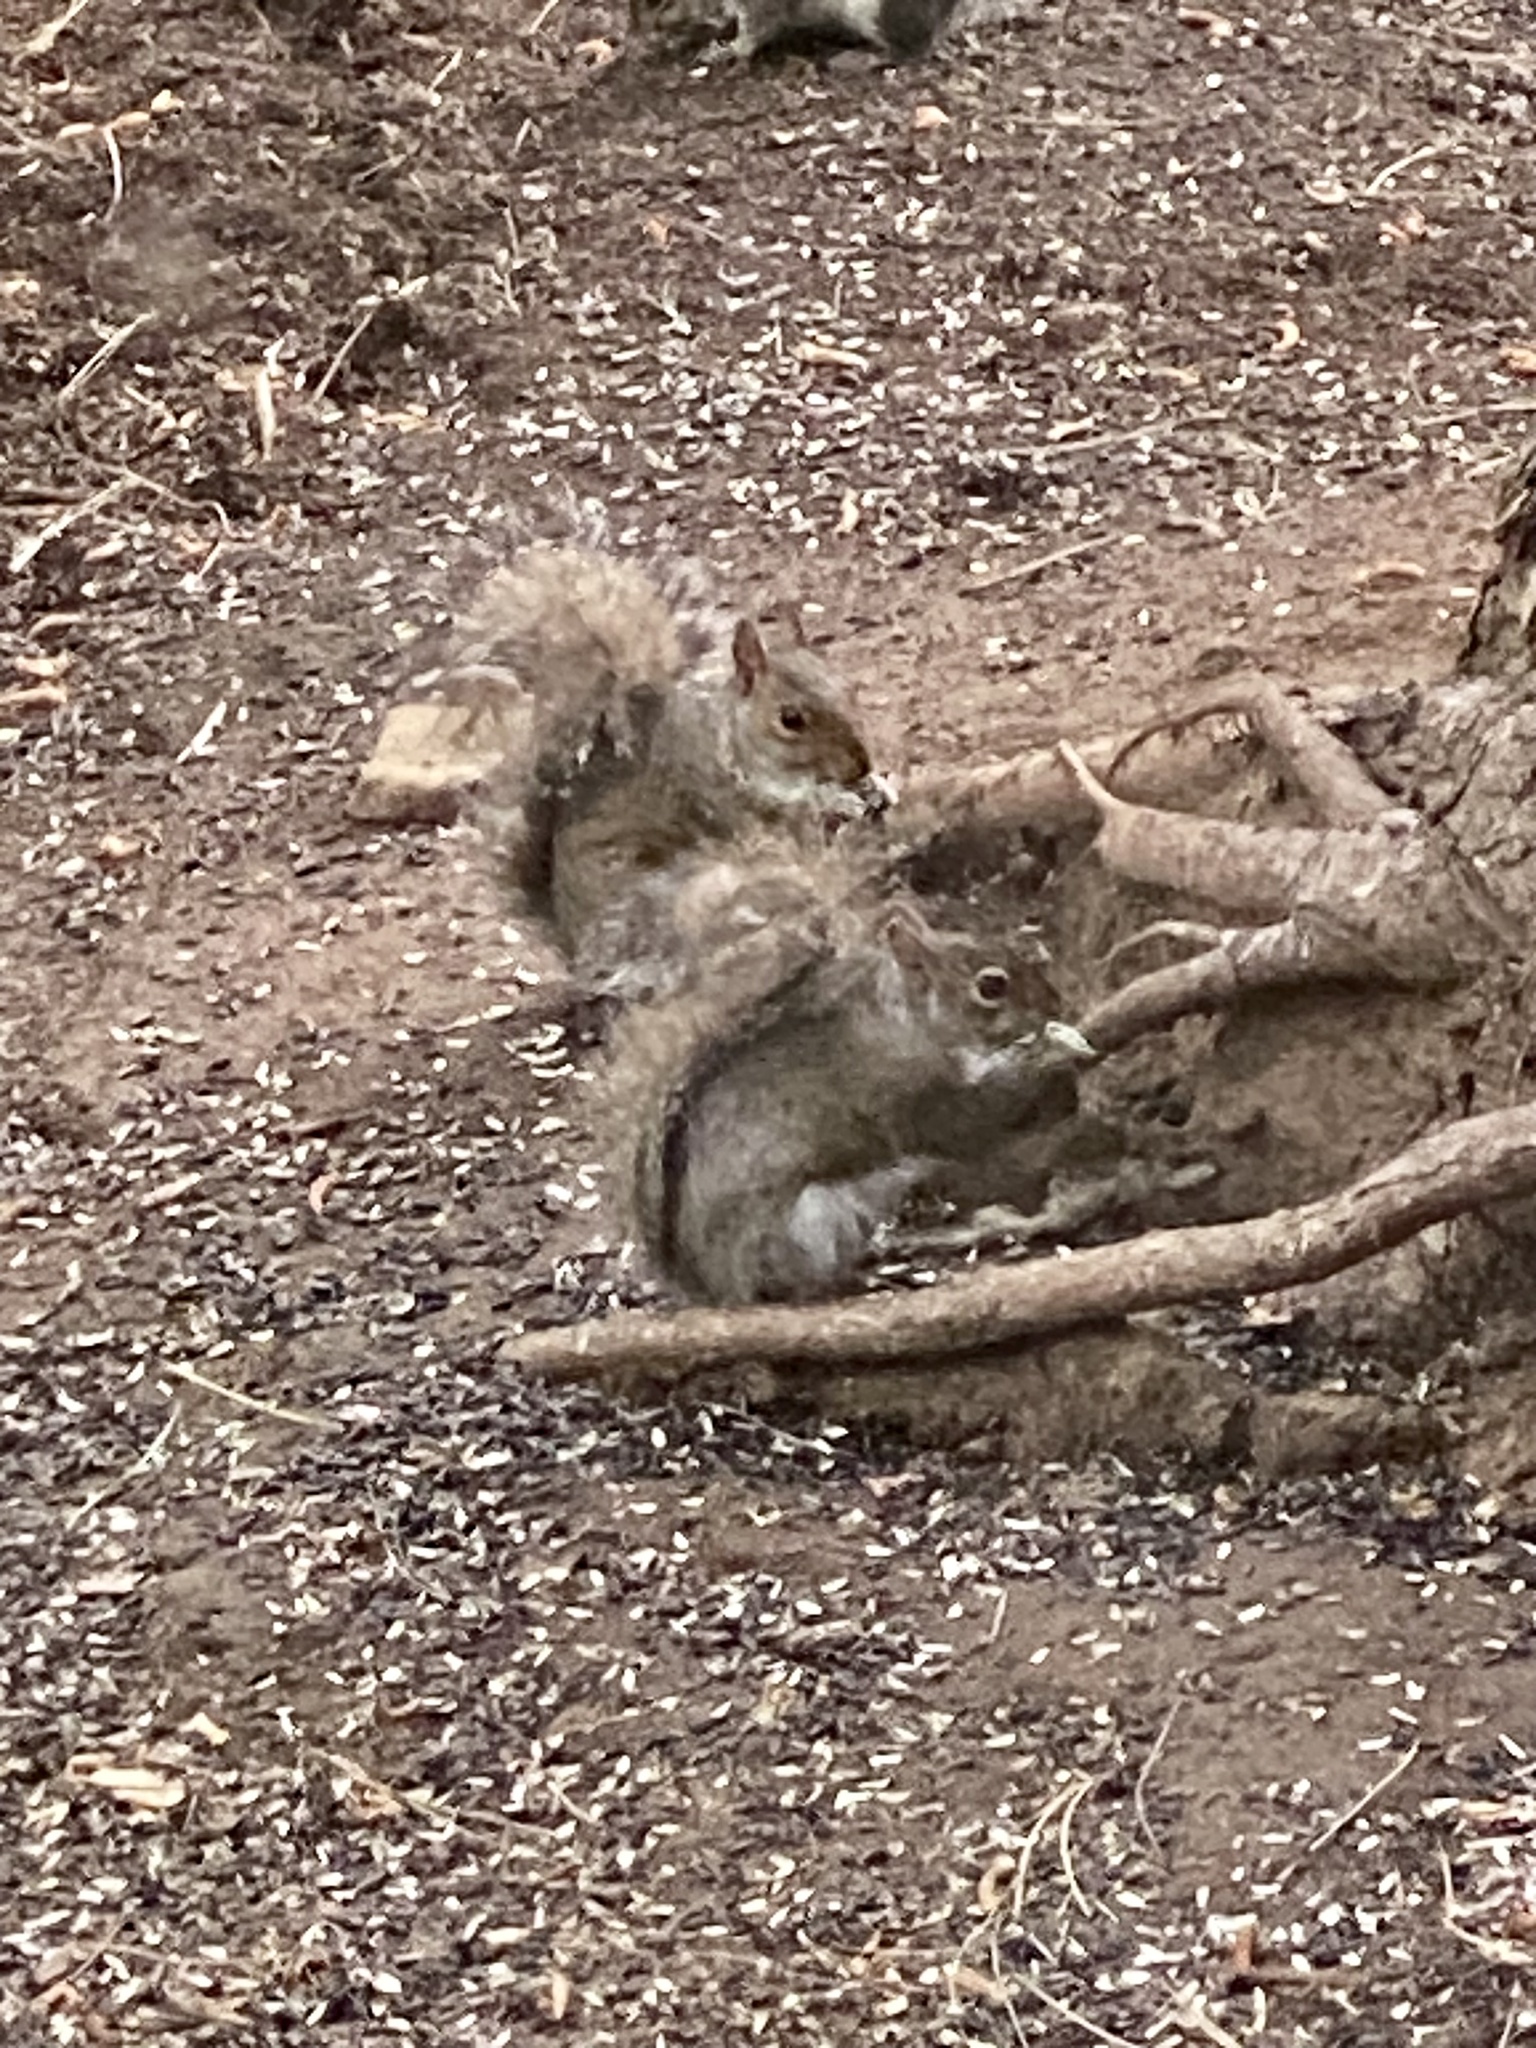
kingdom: Animalia
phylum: Chordata
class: Mammalia
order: Rodentia
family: Sciuridae
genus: Sciurus
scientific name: Sciurus carolinensis
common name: Eastern gray squirrel
